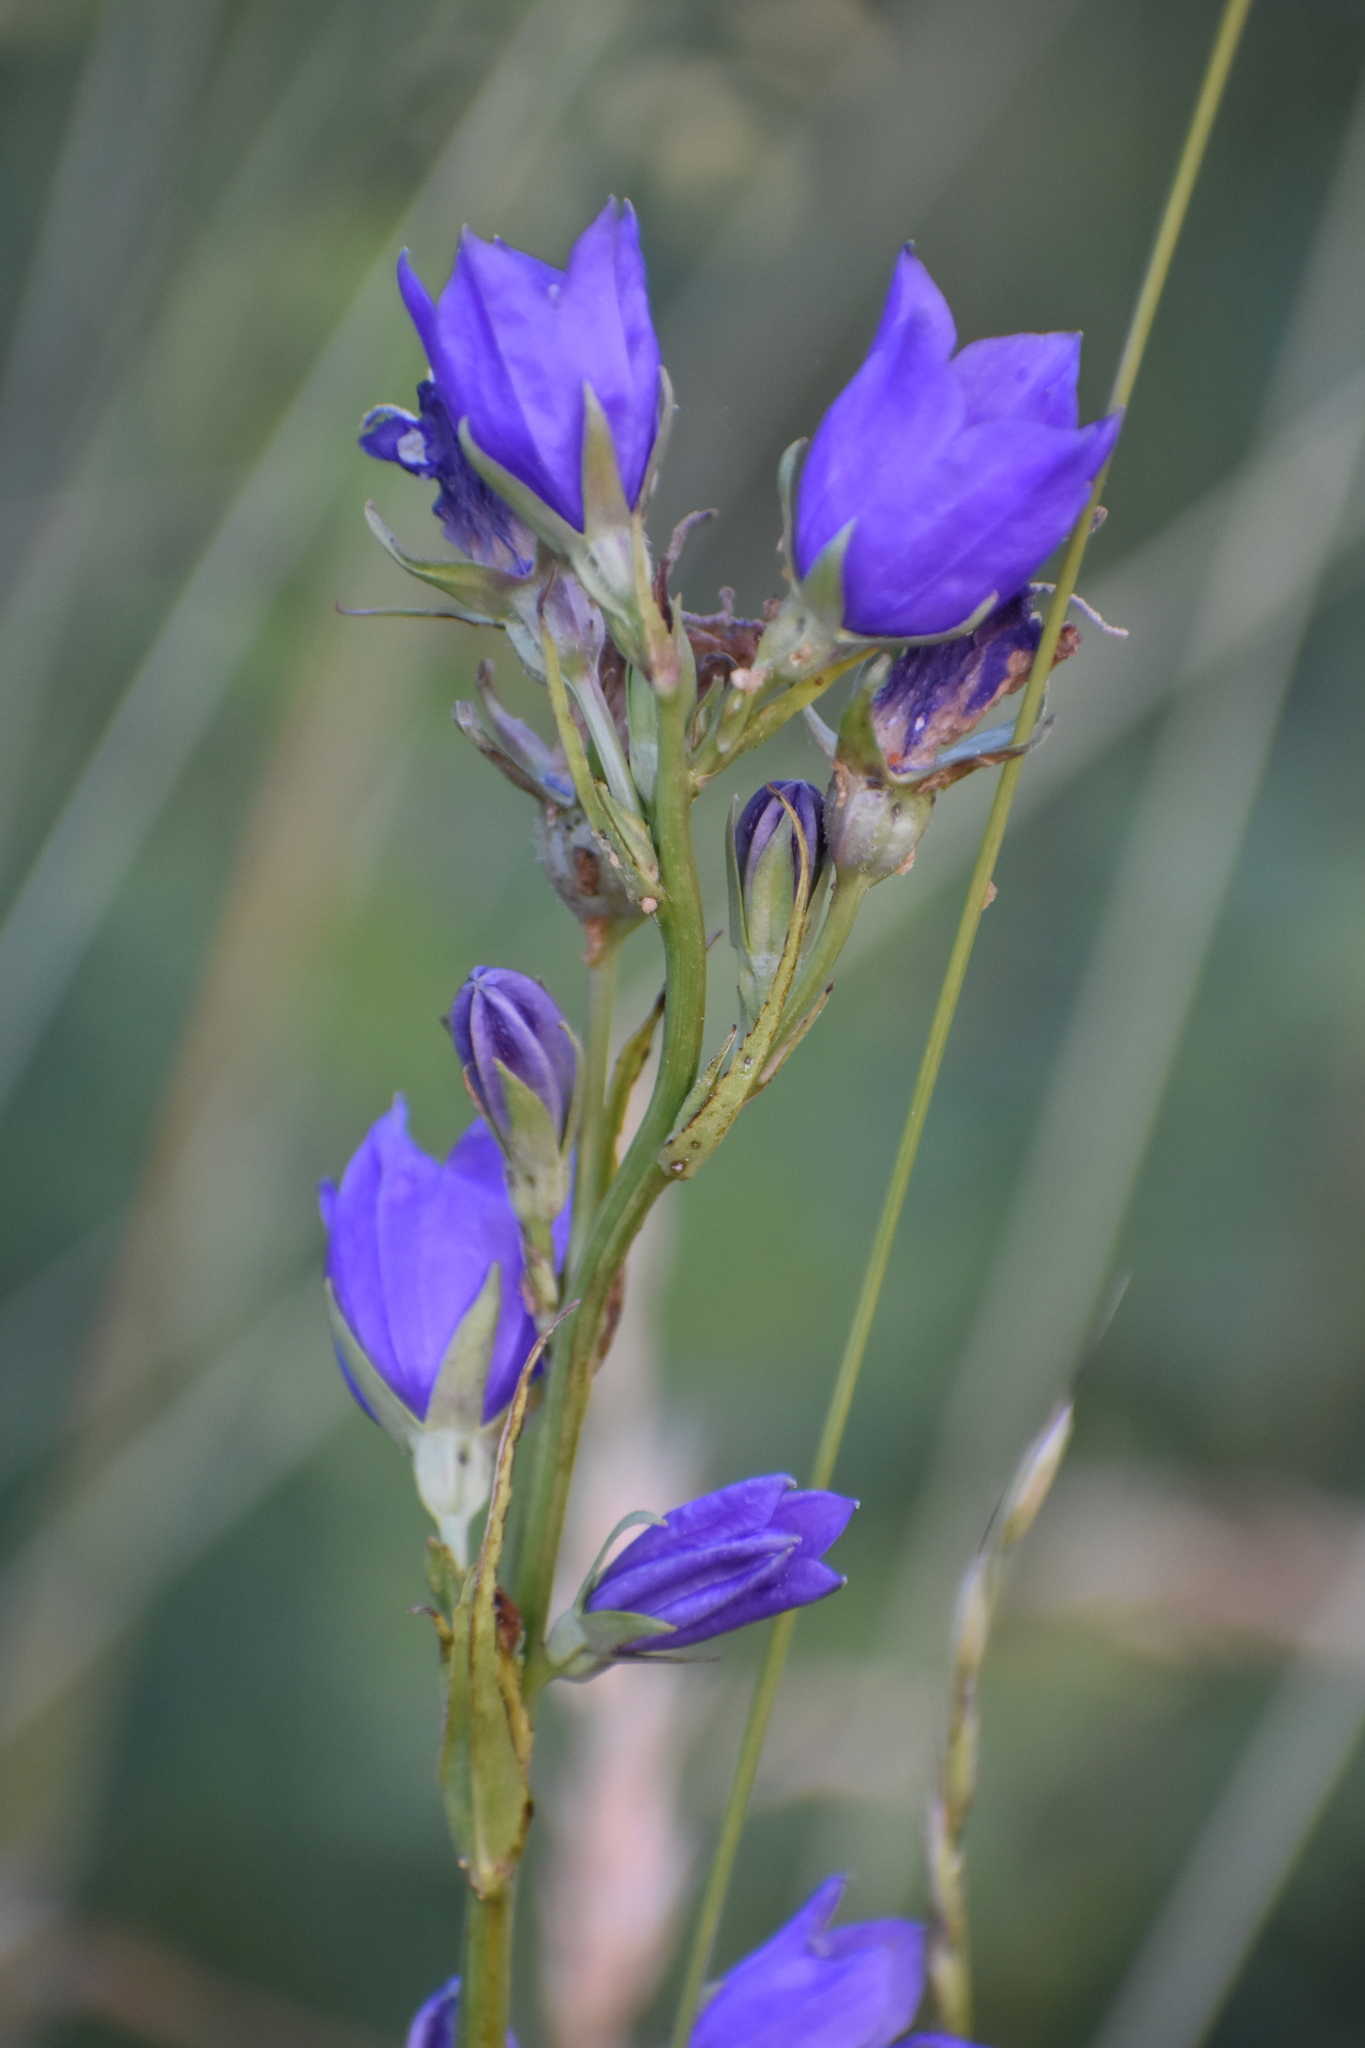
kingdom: Plantae
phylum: Tracheophyta
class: Magnoliopsida
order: Asterales
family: Campanulaceae
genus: Campanula
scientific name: Campanula persicifolia
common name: Peach-leaved bellflower
